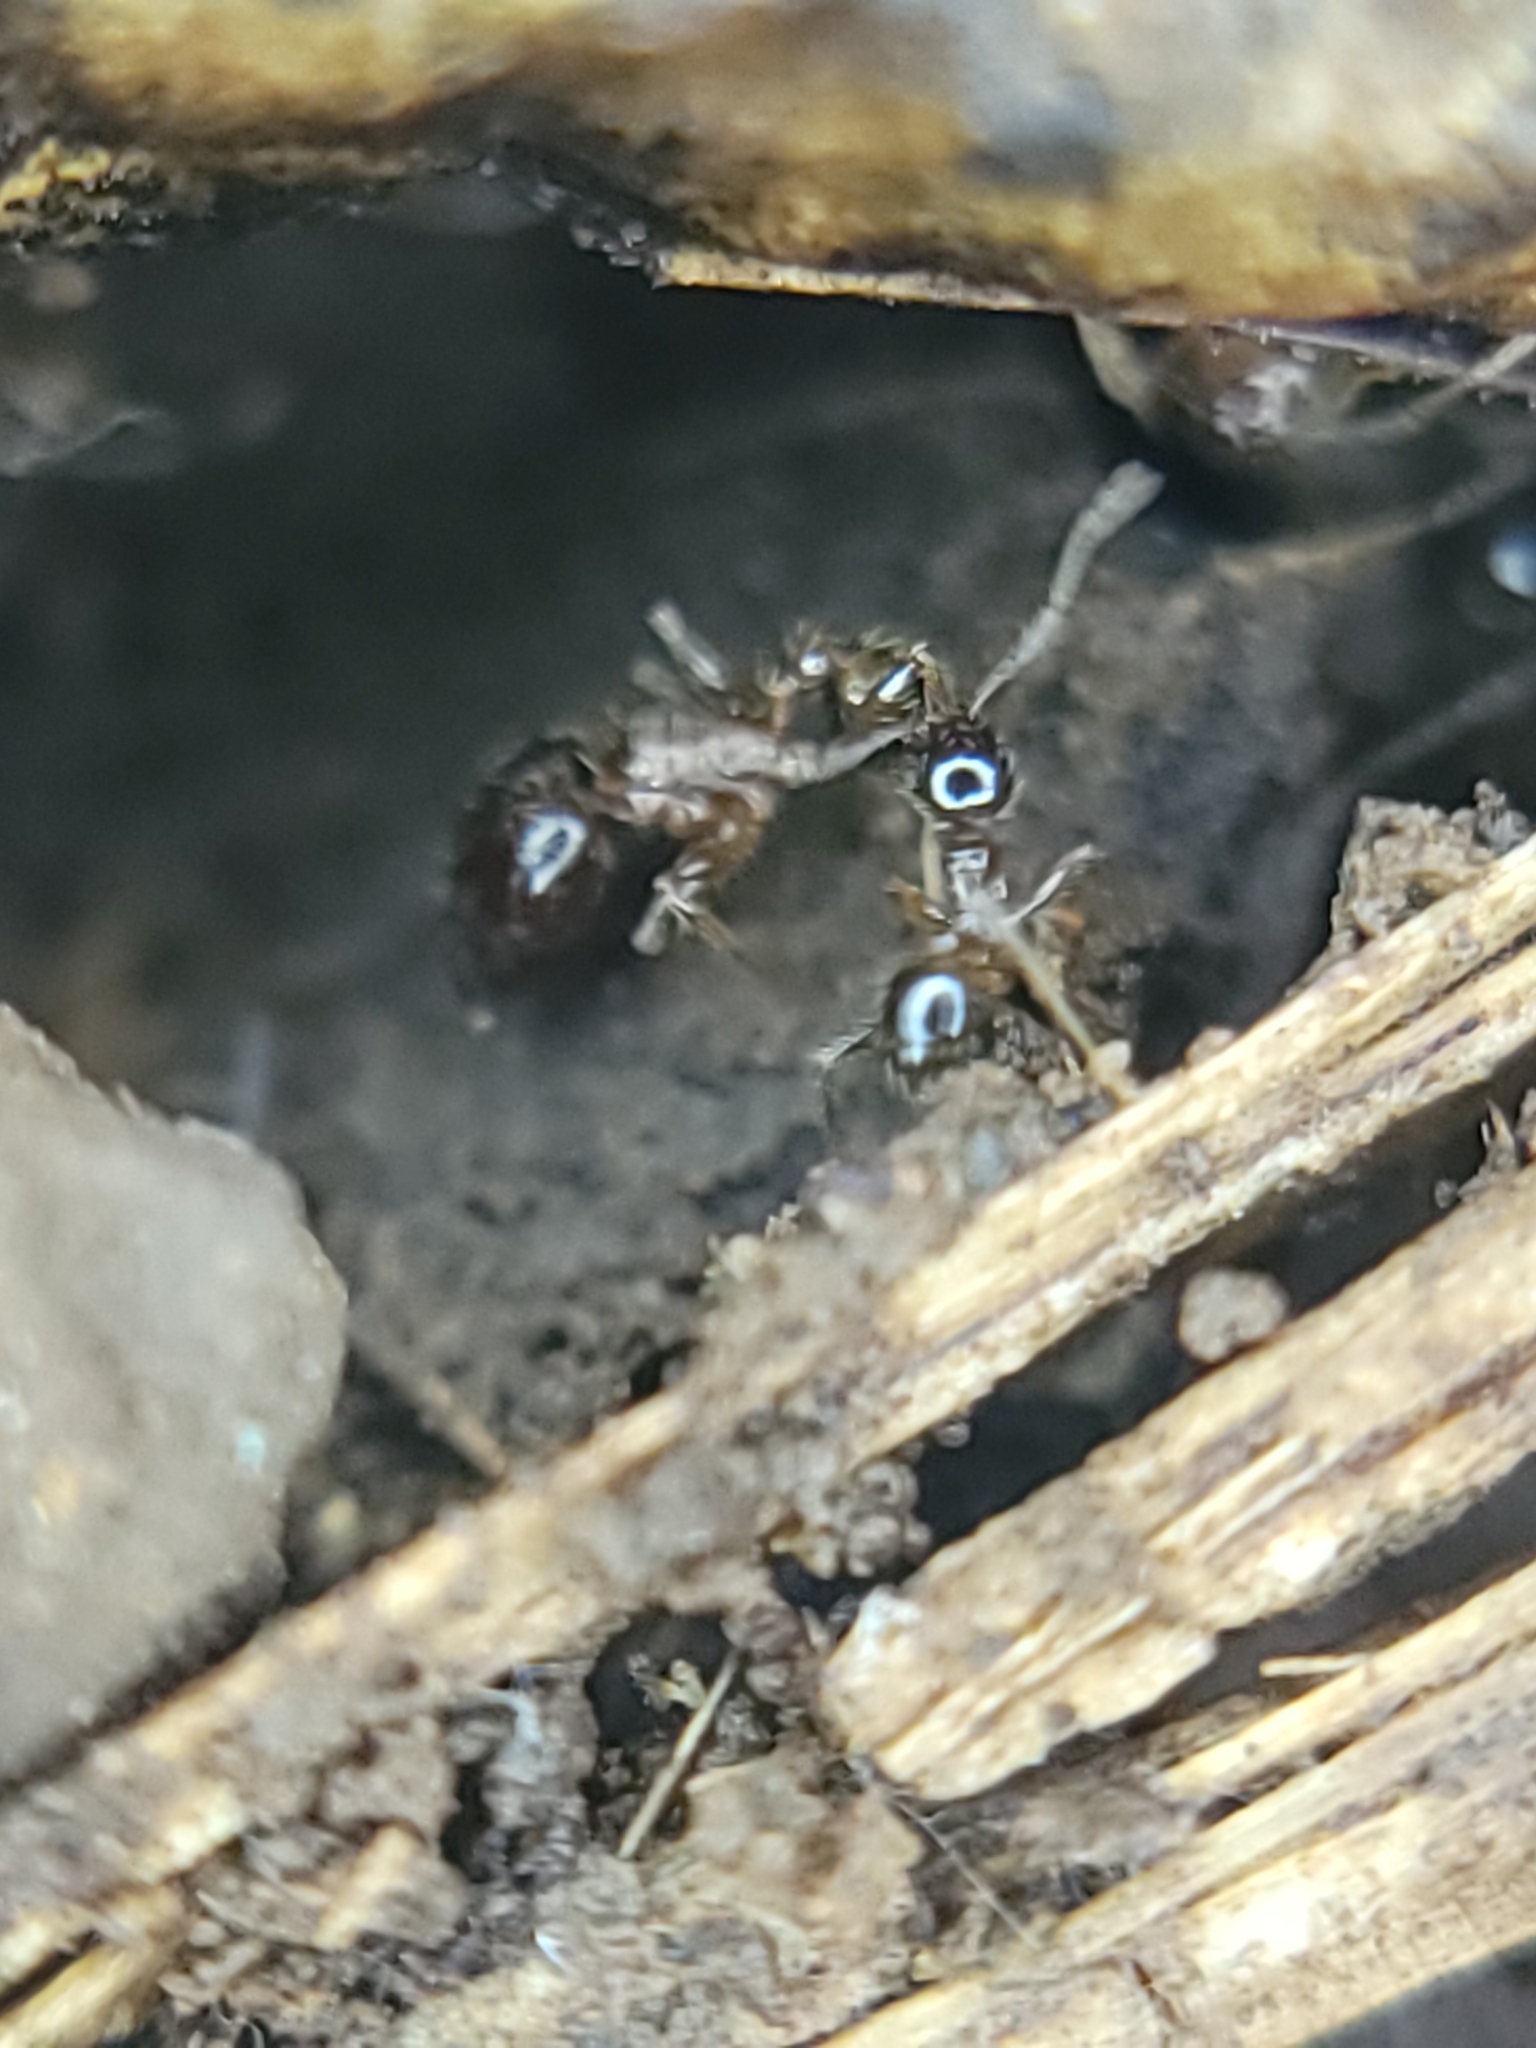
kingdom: Animalia
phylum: Arthropoda
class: Insecta
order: Hymenoptera
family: Formicidae
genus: Pheidole
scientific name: Pheidole megacephala
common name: Bigheaded ant
